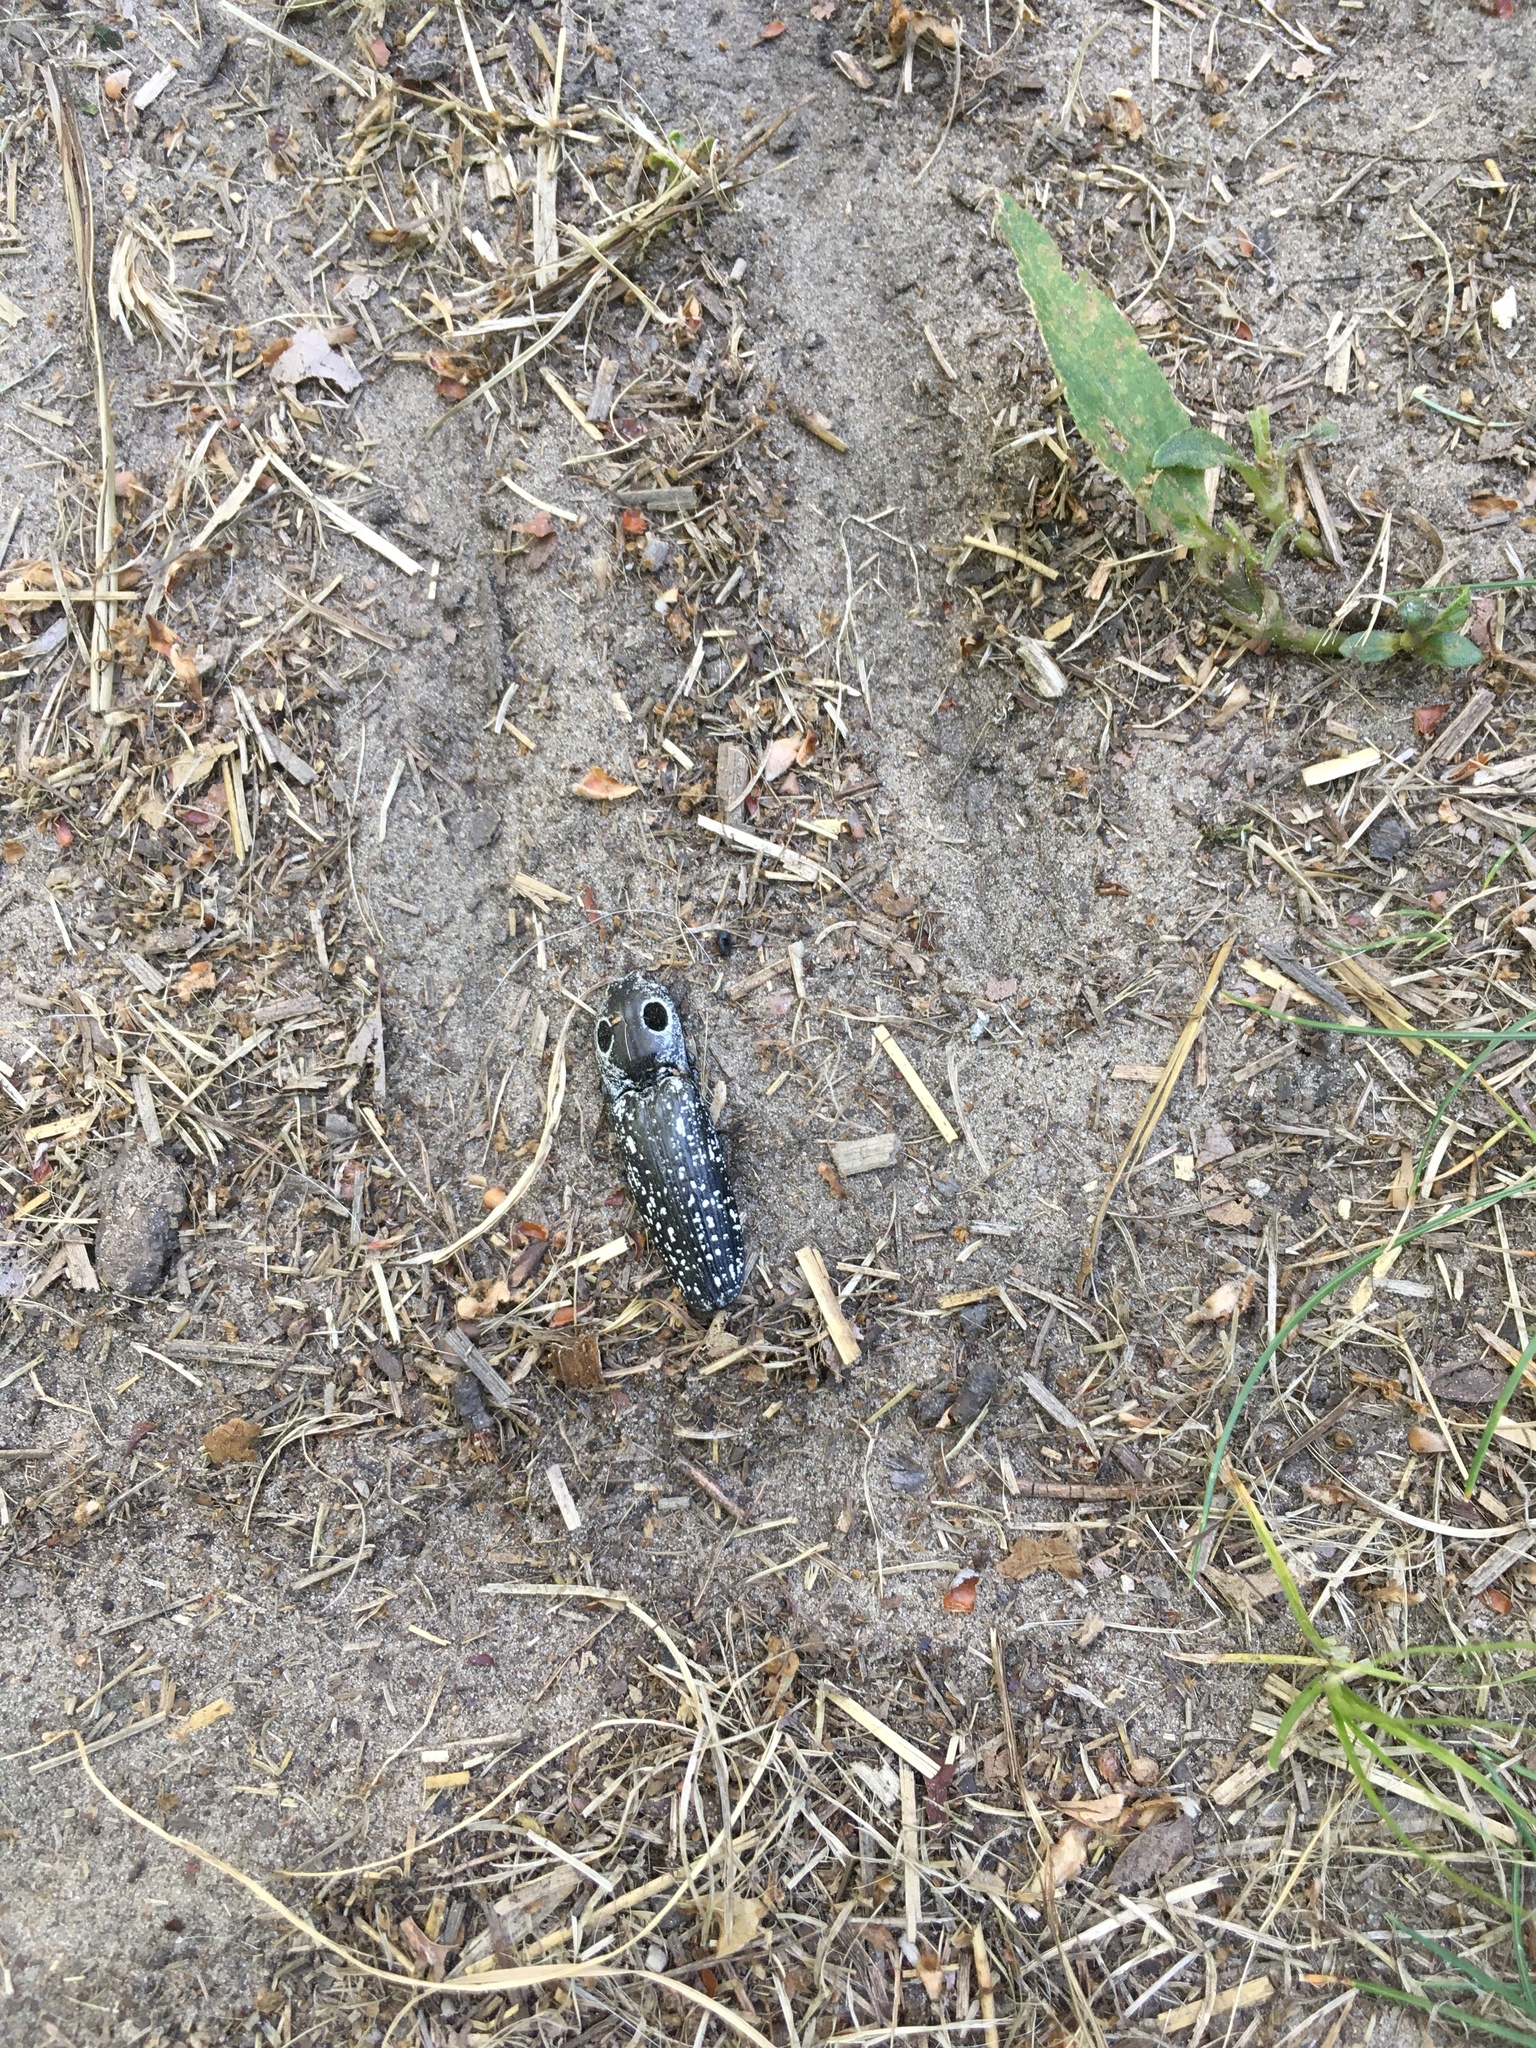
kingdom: Animalia
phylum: Arthropoda
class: Insecta
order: Coleoptera
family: Elateridae
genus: Alaus
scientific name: Alaus oculatus
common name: Eastern eyed click beetle
